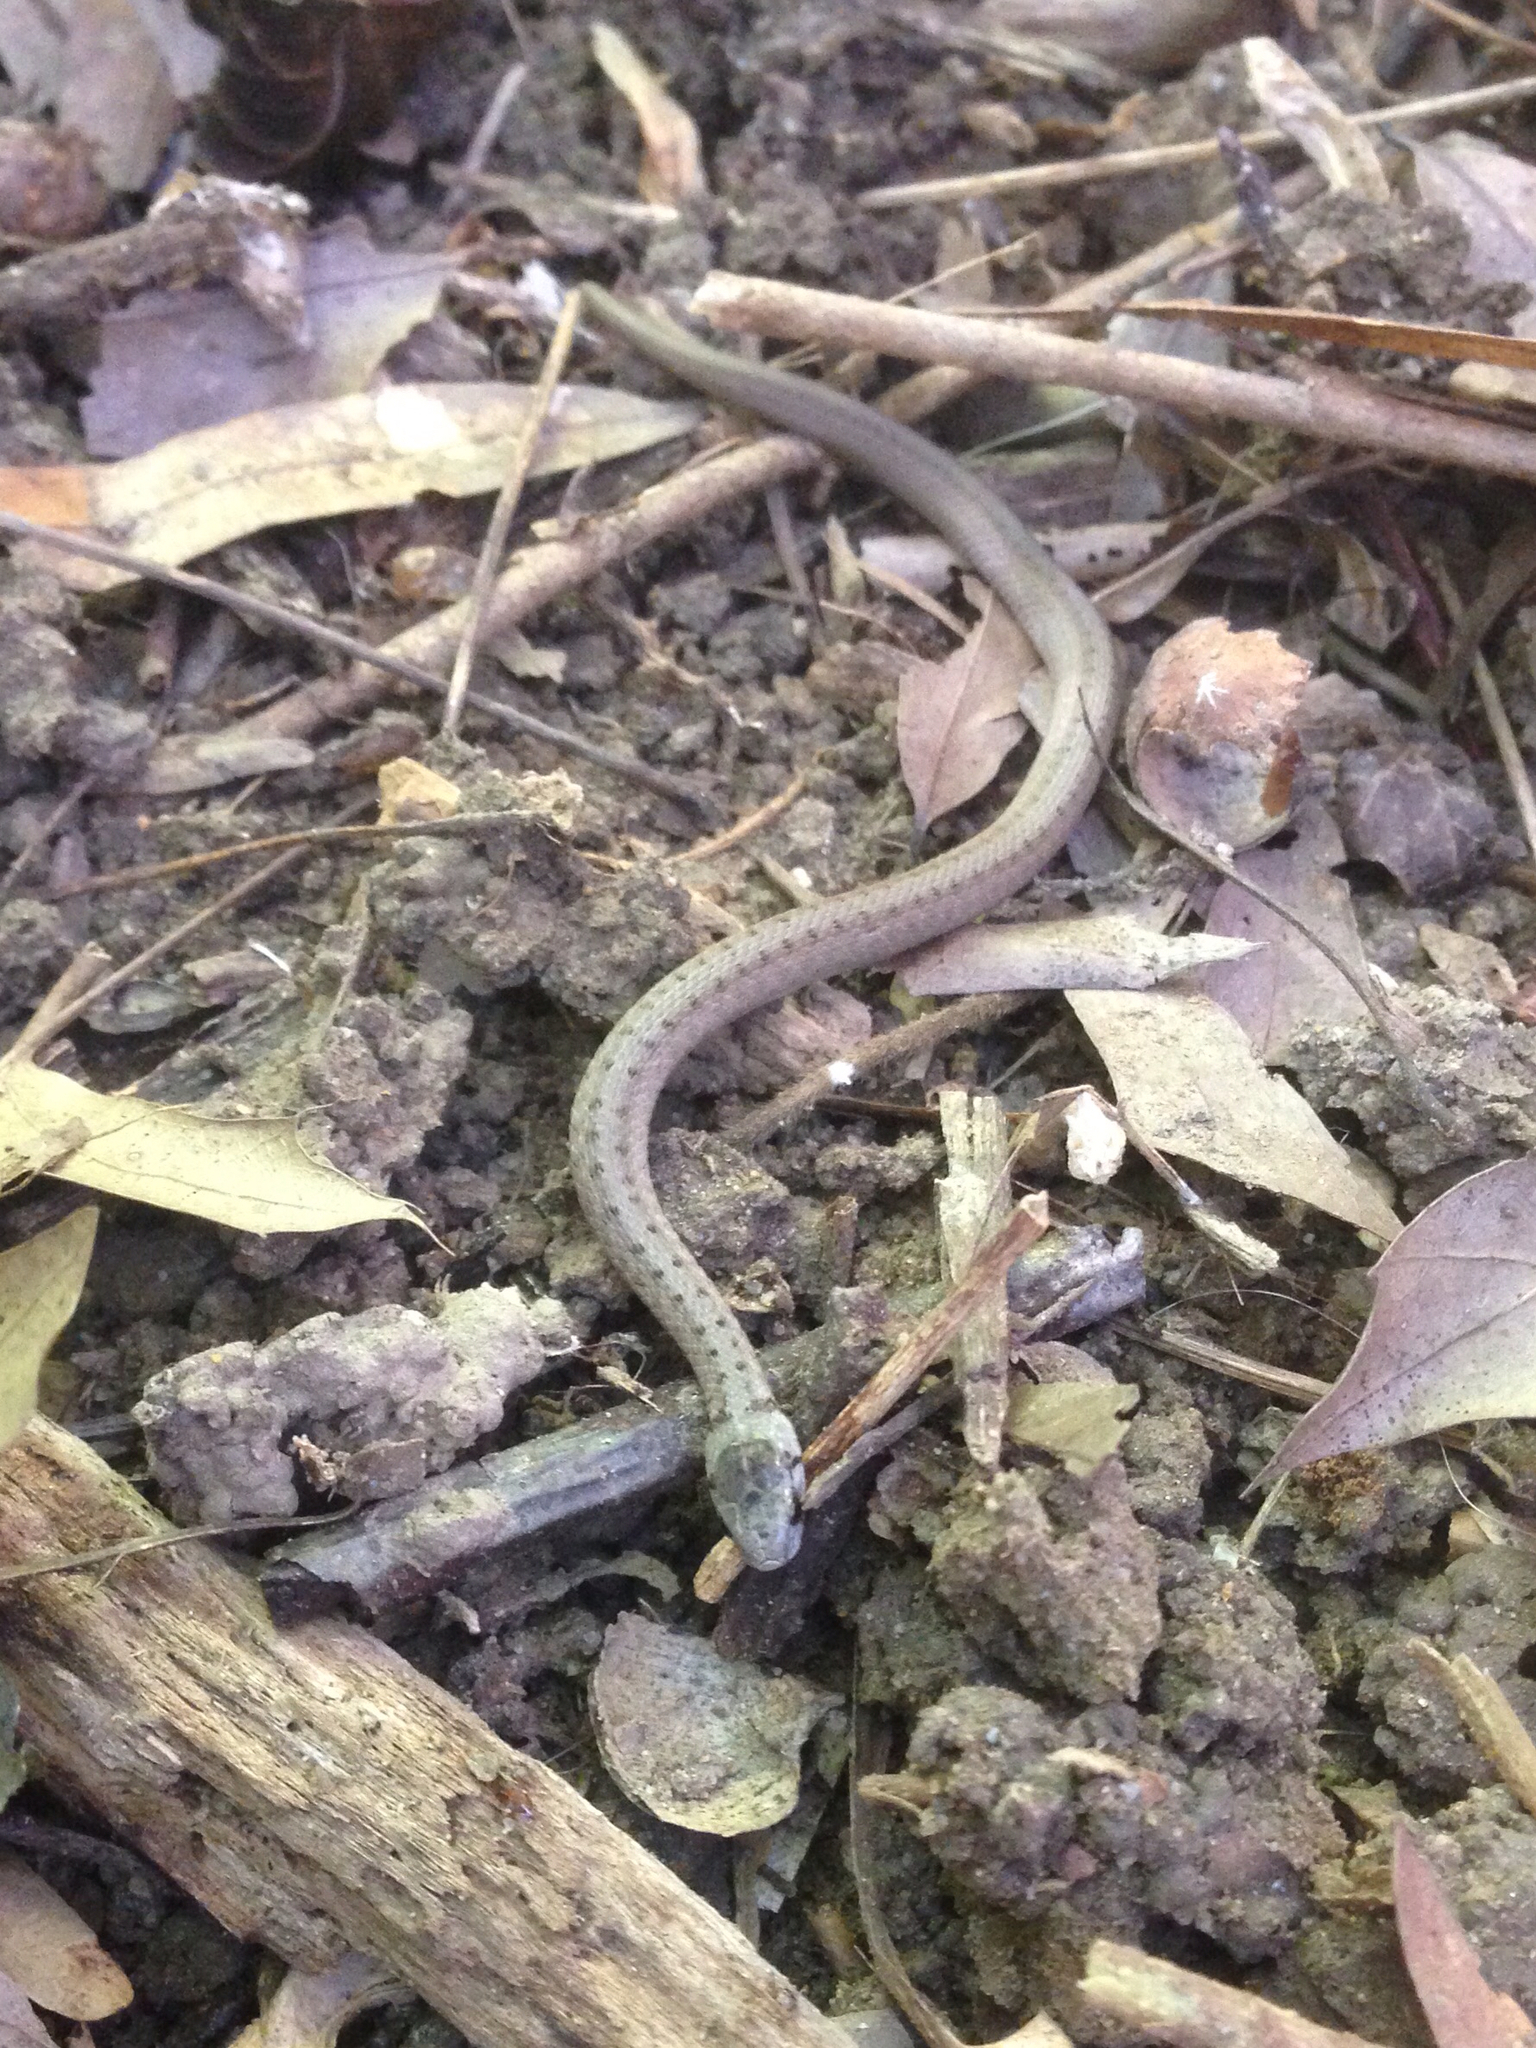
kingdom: Animalia
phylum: Chordata
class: Squamata
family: Colubridae
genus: Storeria
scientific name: Storeria dekayi
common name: (dekay’s) brown snake
